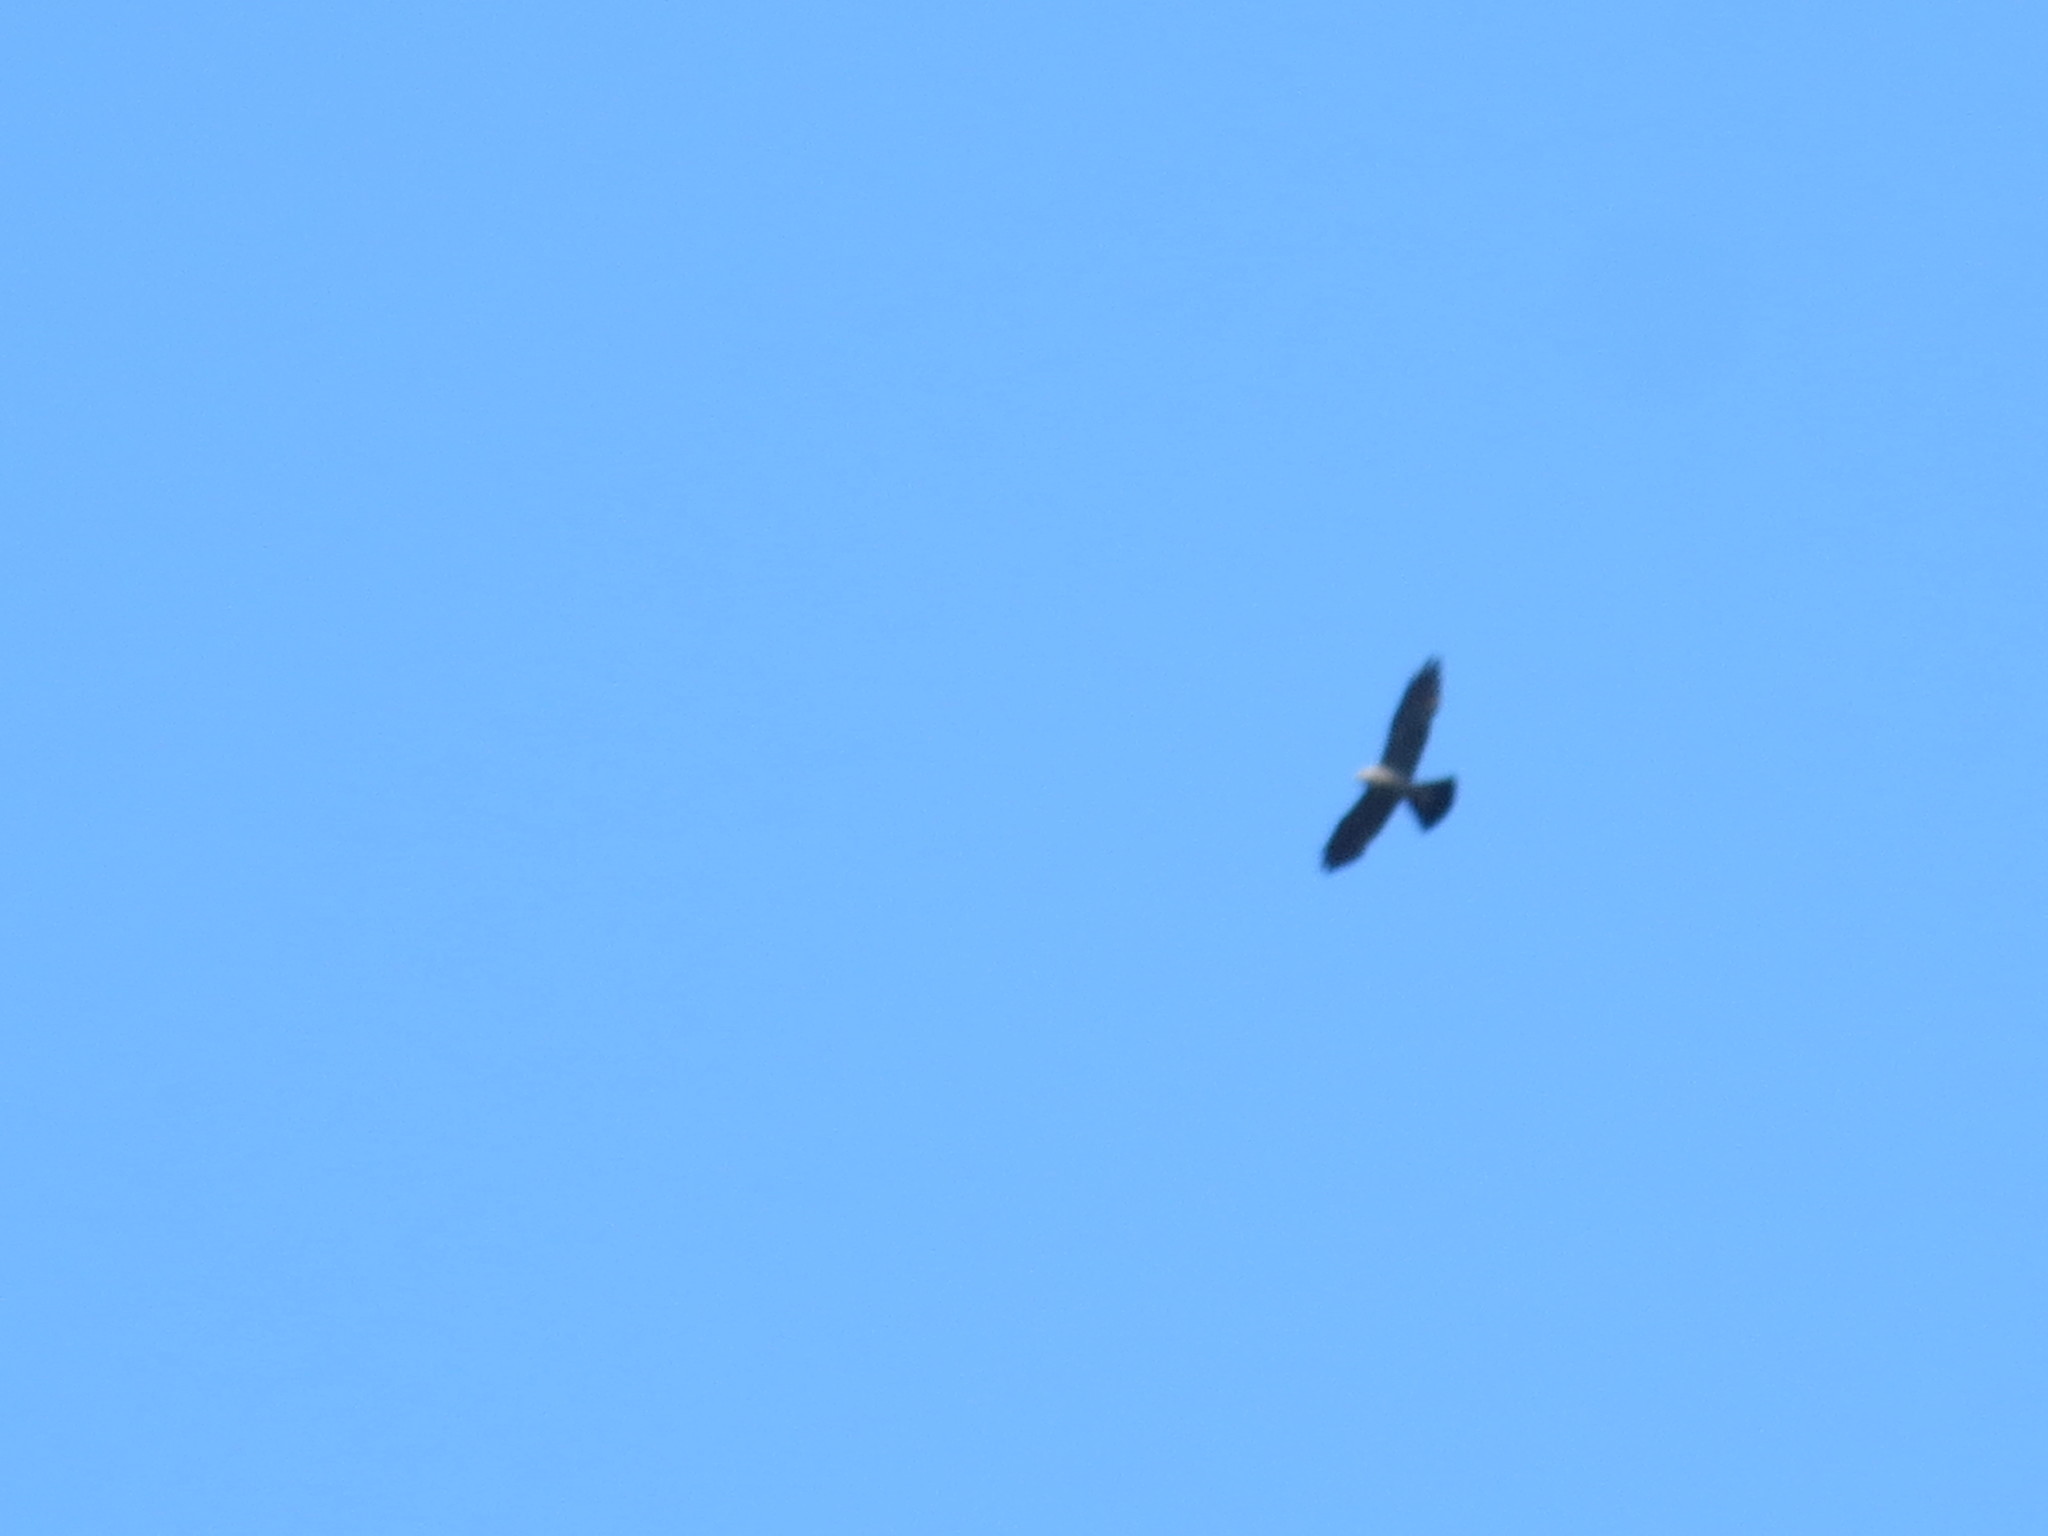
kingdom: Animalia
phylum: Chordata
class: Aves
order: Accipitriformes
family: Accipitridae
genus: Ictinia
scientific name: Ictinia mississippiensis
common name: Mississippi kite
